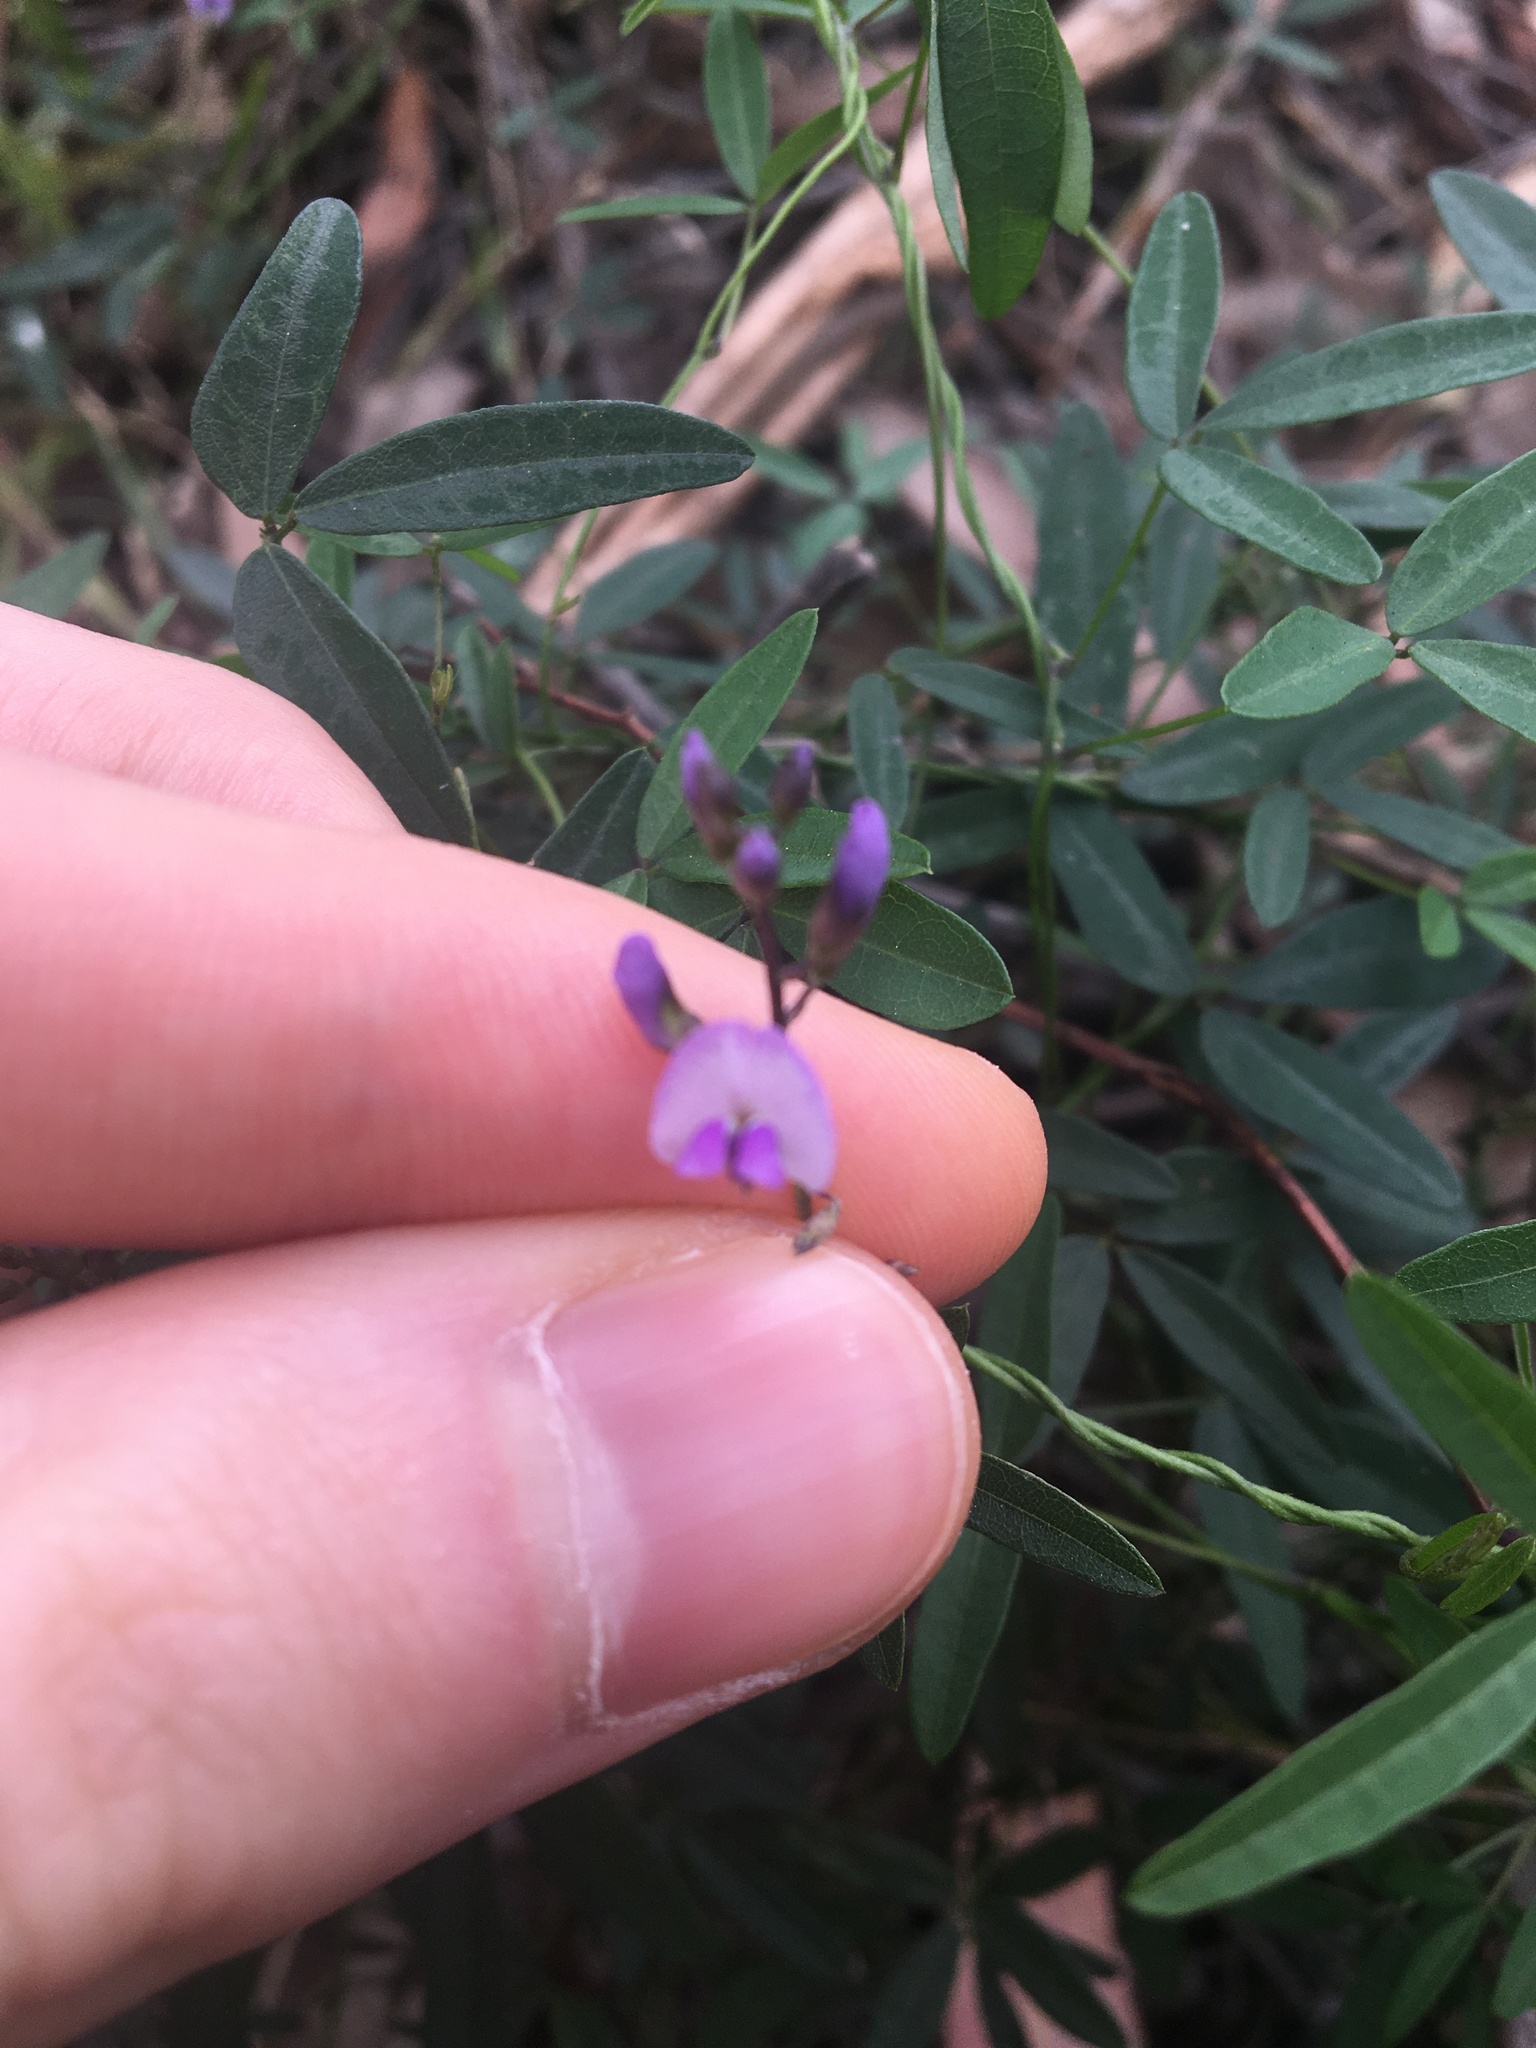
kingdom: Plantae
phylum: Tracheophyta
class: Magnoliopsida
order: Fabales
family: Fabaceae
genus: Glycine
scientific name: Glycine microphylla
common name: Small-leaf glycine
